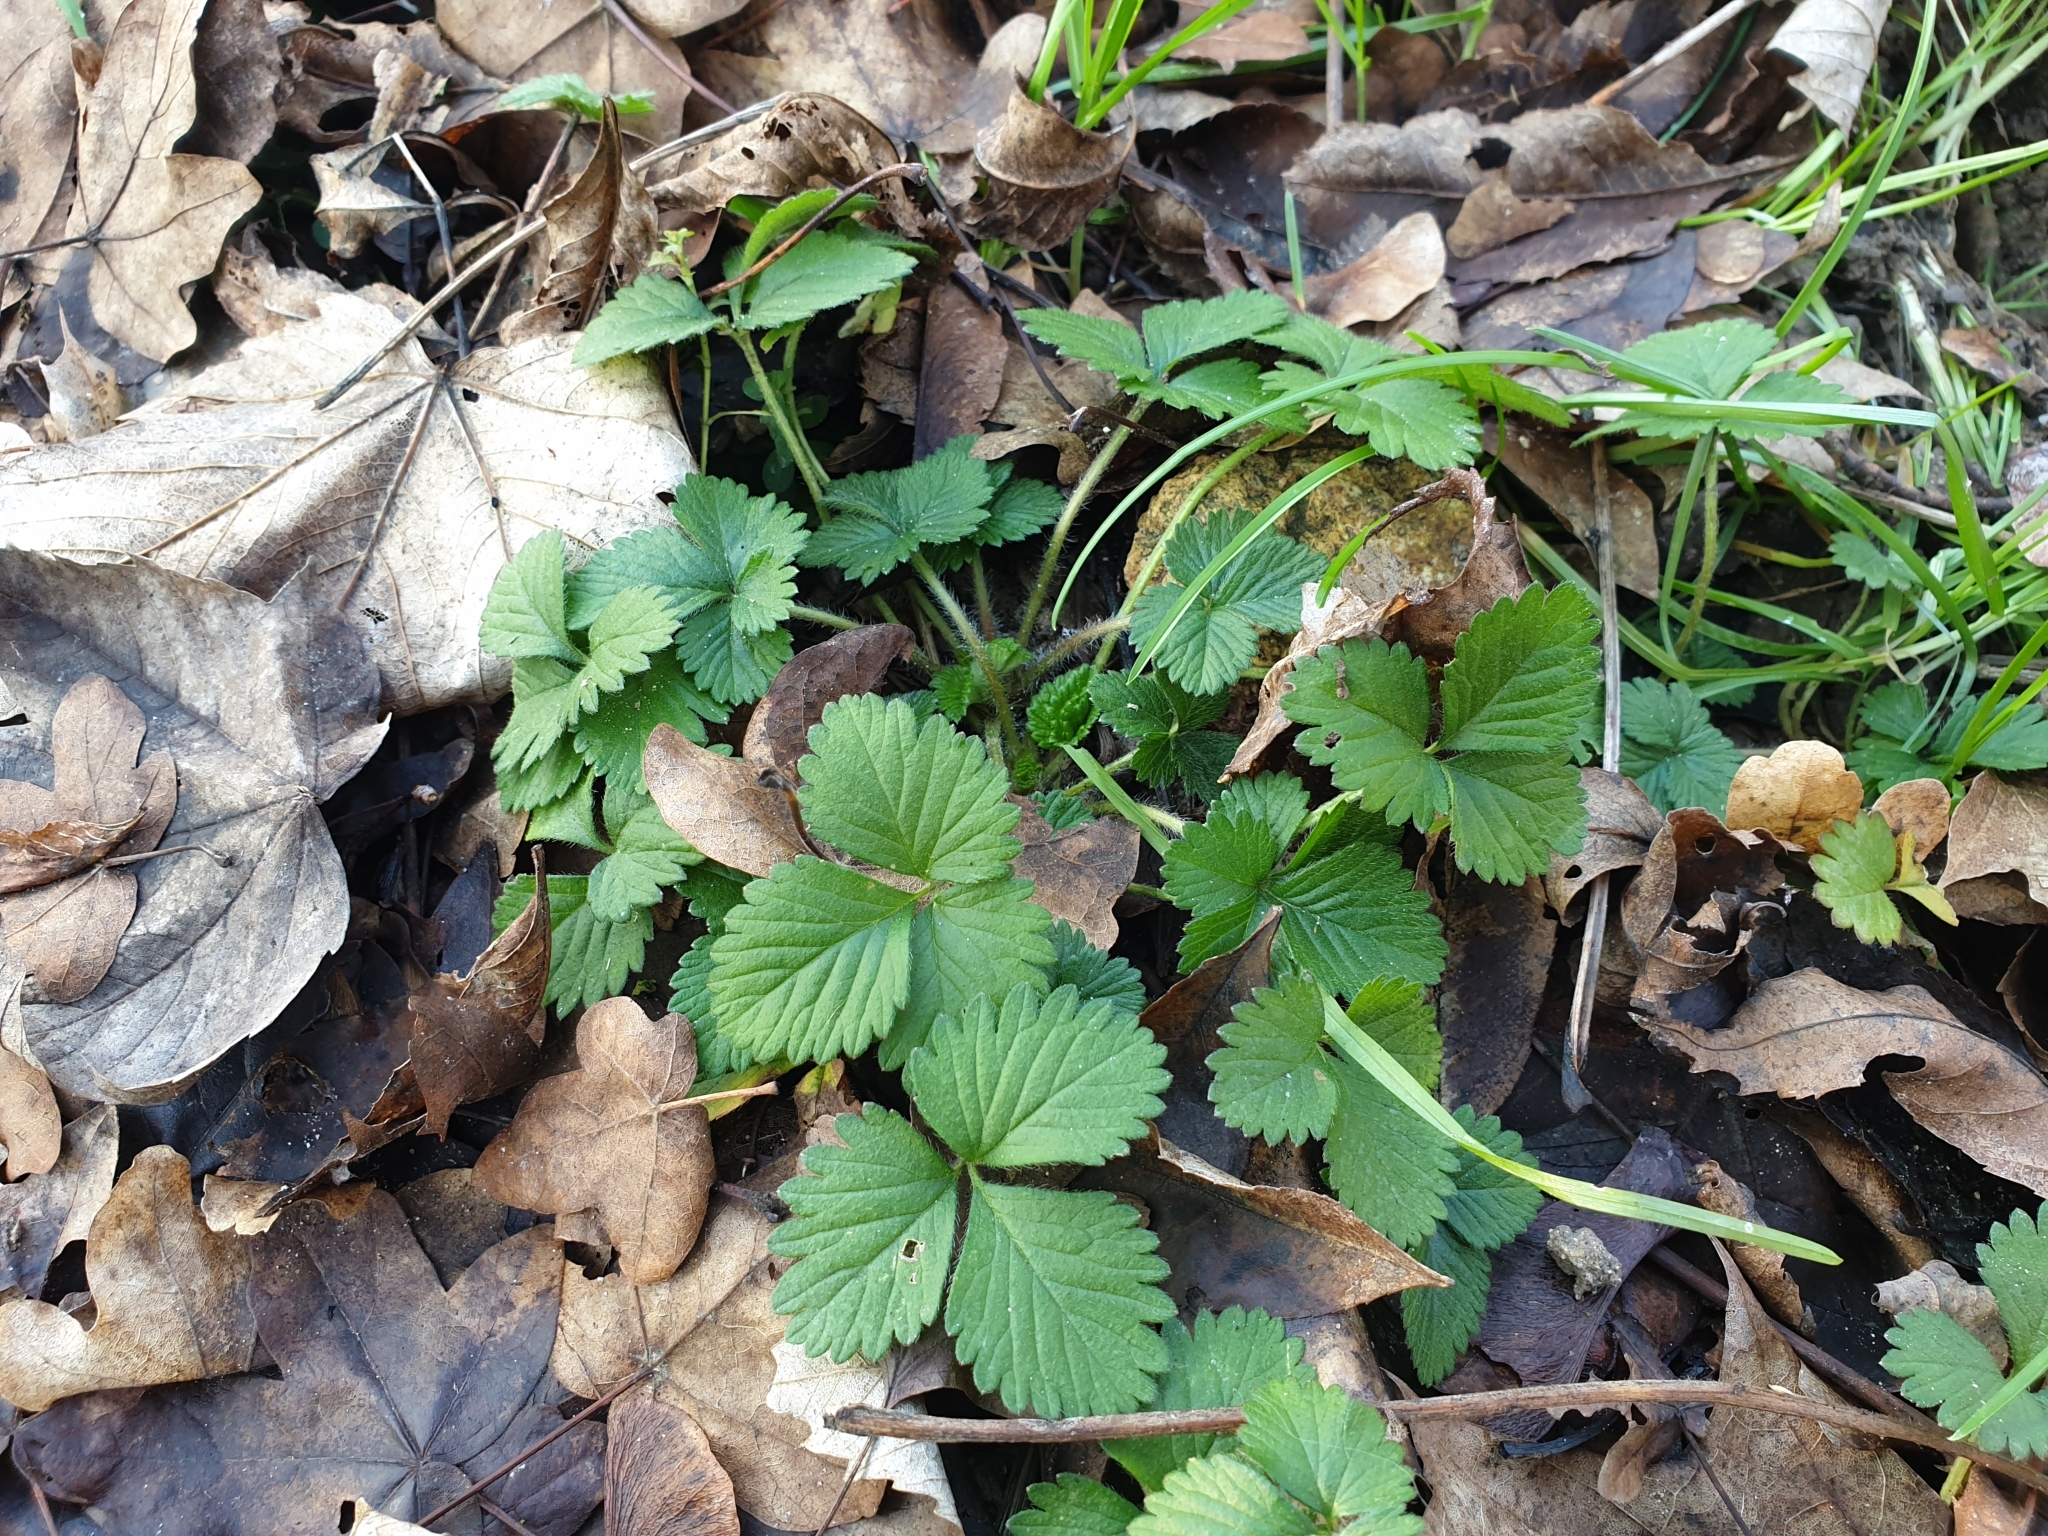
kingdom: Plantae
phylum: Tracheophyta
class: Magnoliopsida
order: Rosales
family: Rosaceae
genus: Potentilla
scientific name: Potentilla indica
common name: Yellow-flowered strawberry
